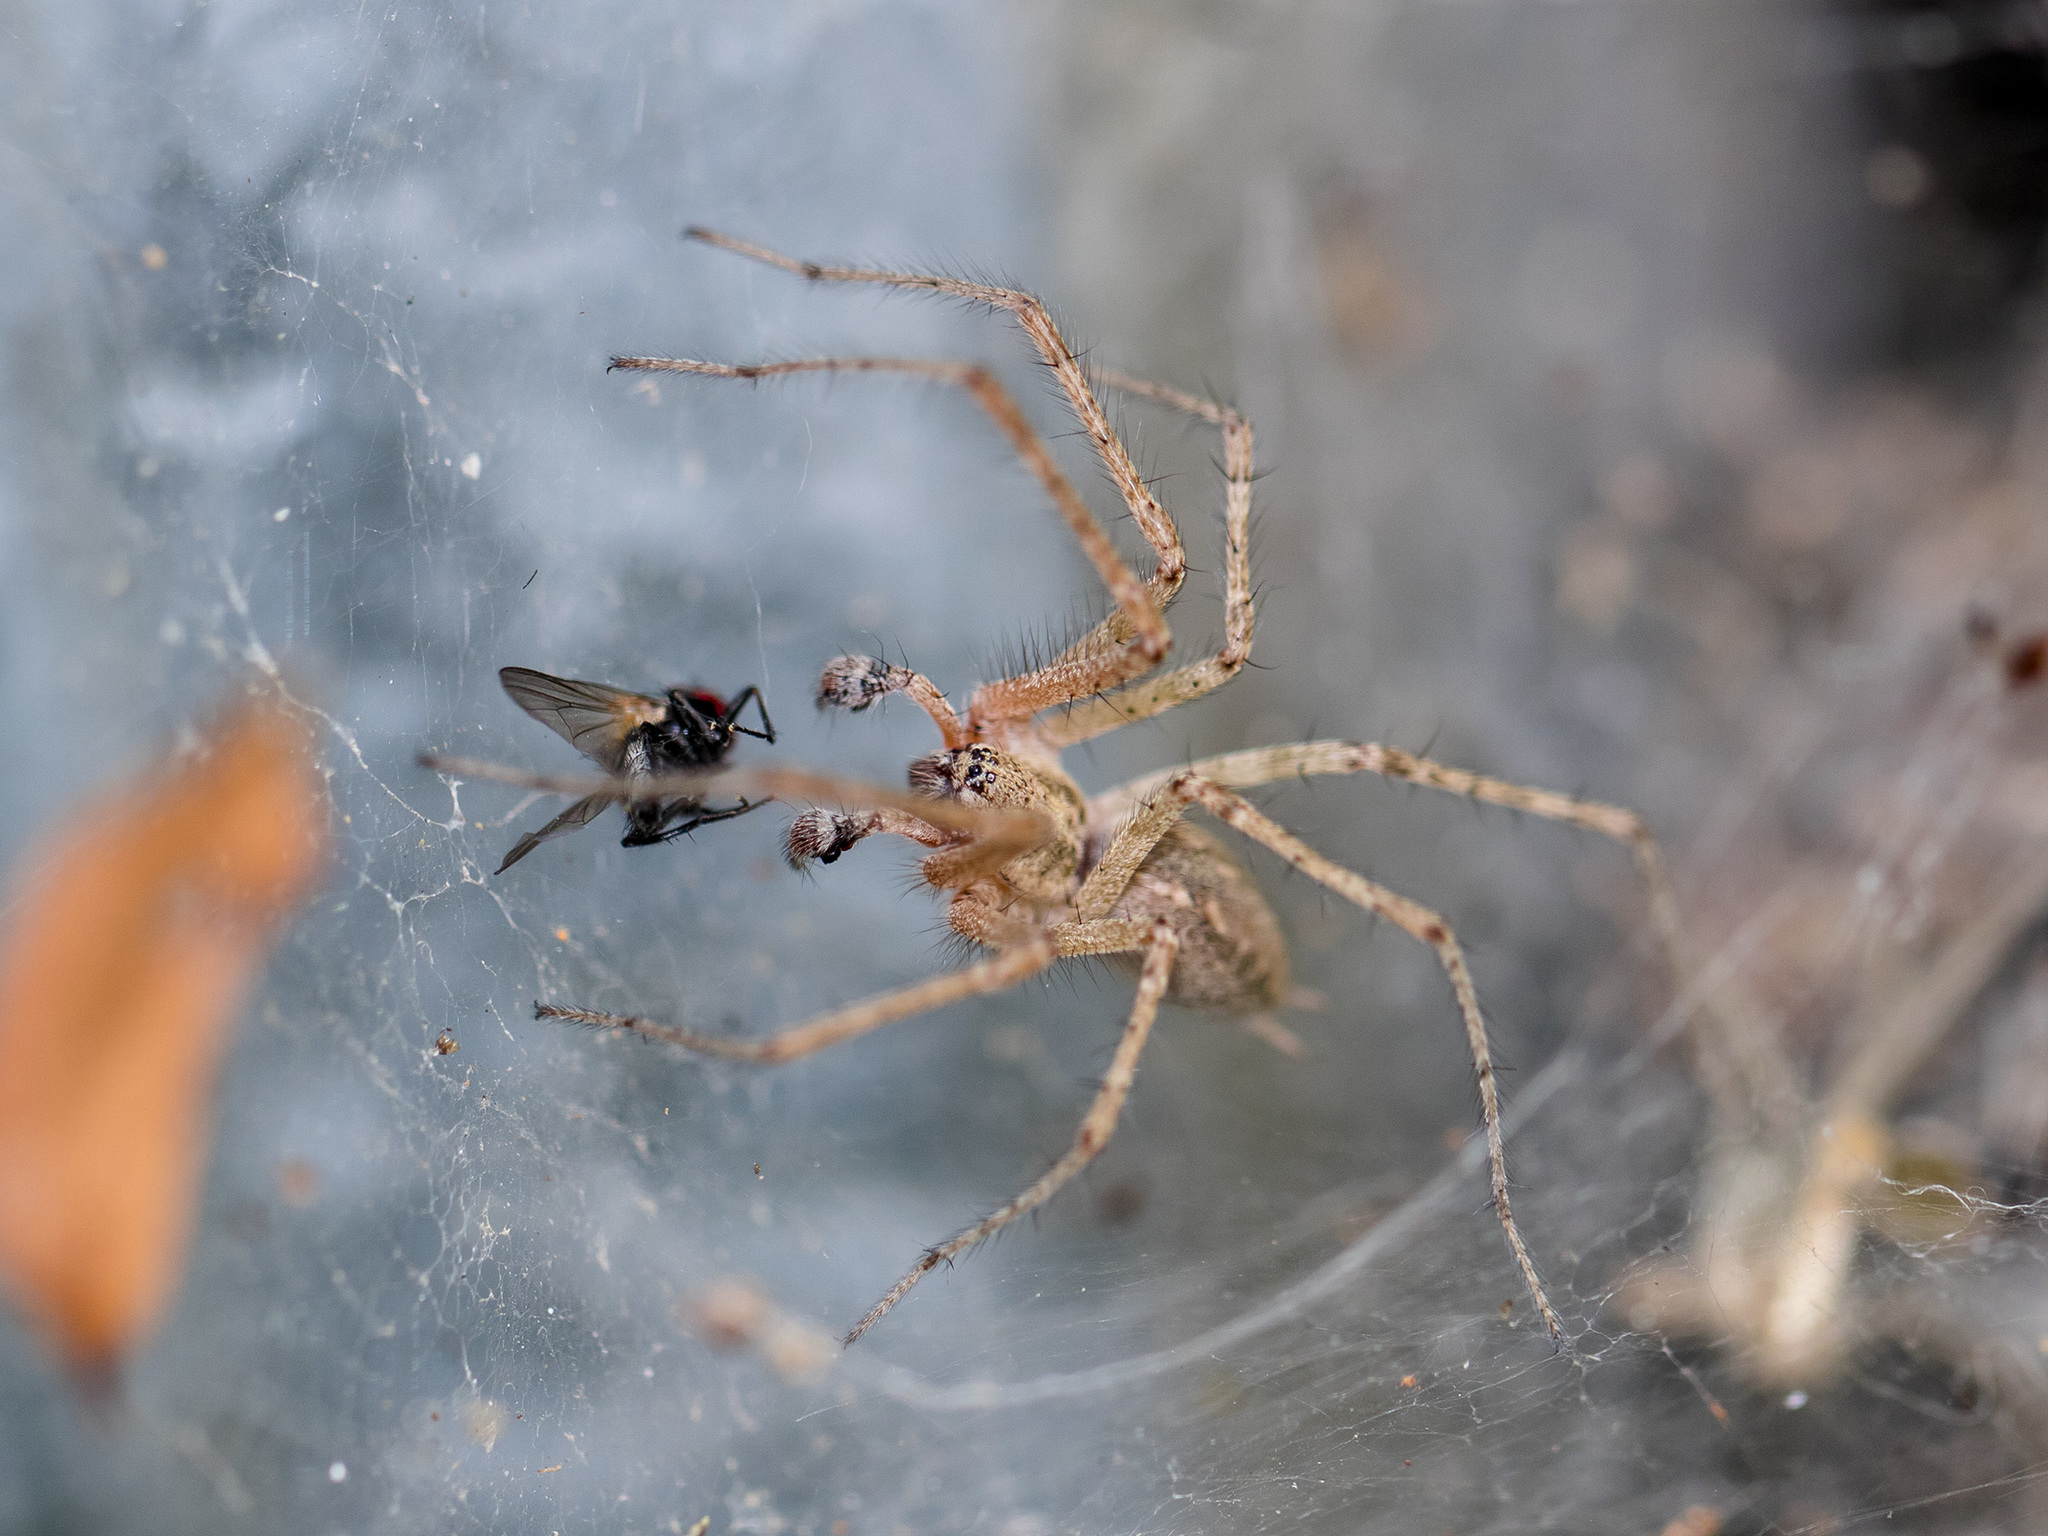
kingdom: Animalia
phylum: Arthropoda
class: Arachnida
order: Araneae
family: Agelenidae
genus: Allagelena
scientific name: Allagelena gracilens
